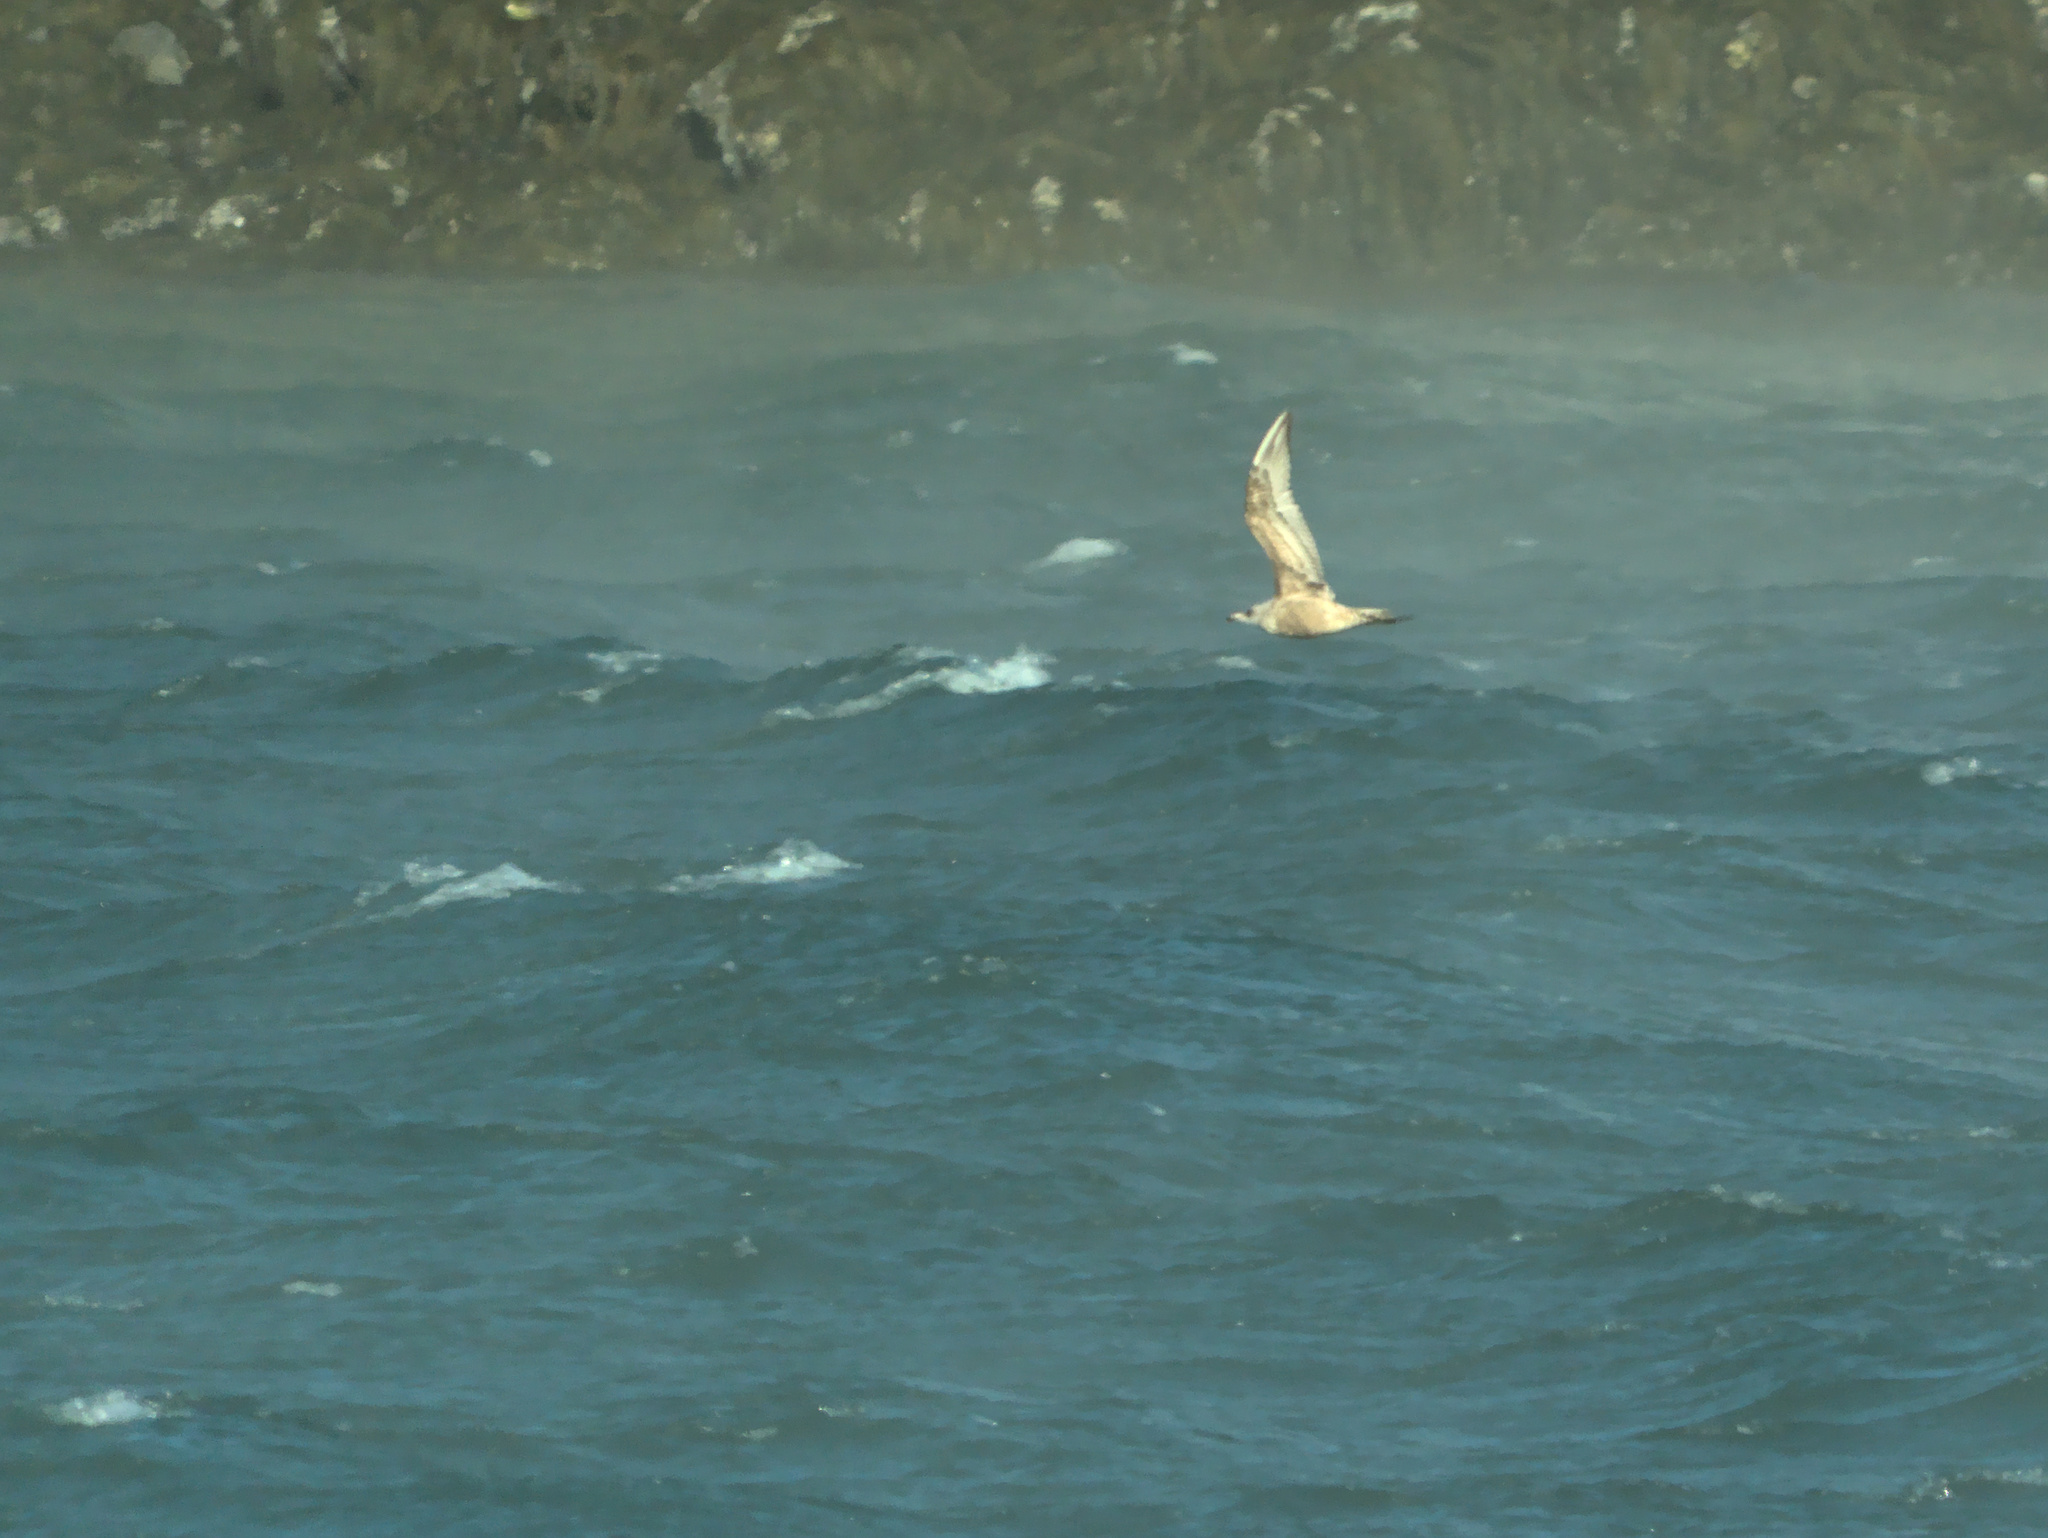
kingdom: Animalia
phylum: Chordata
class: Aves
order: Charadriiformes
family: Laridae
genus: Larus
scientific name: Larus argentatus
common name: Herring gull
